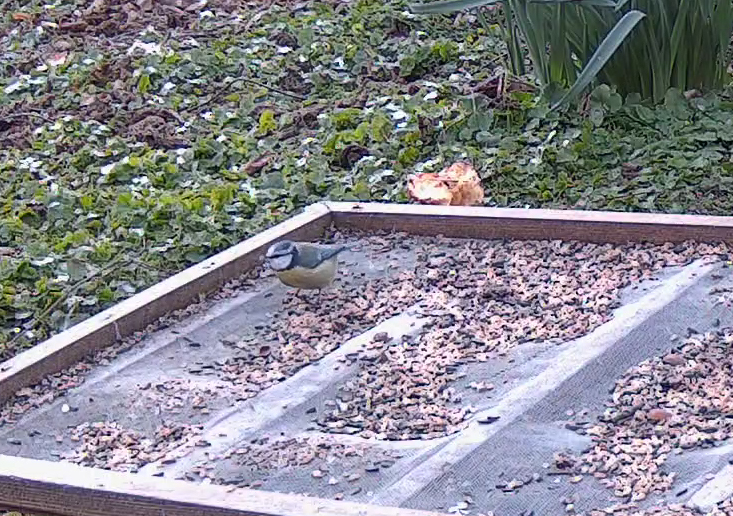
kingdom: Animalia
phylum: Chordata
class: Aves
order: Passeriformes
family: Paridae
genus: Cyanistes
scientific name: Cyanistes caeruleus
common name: Eurasian blue tit
